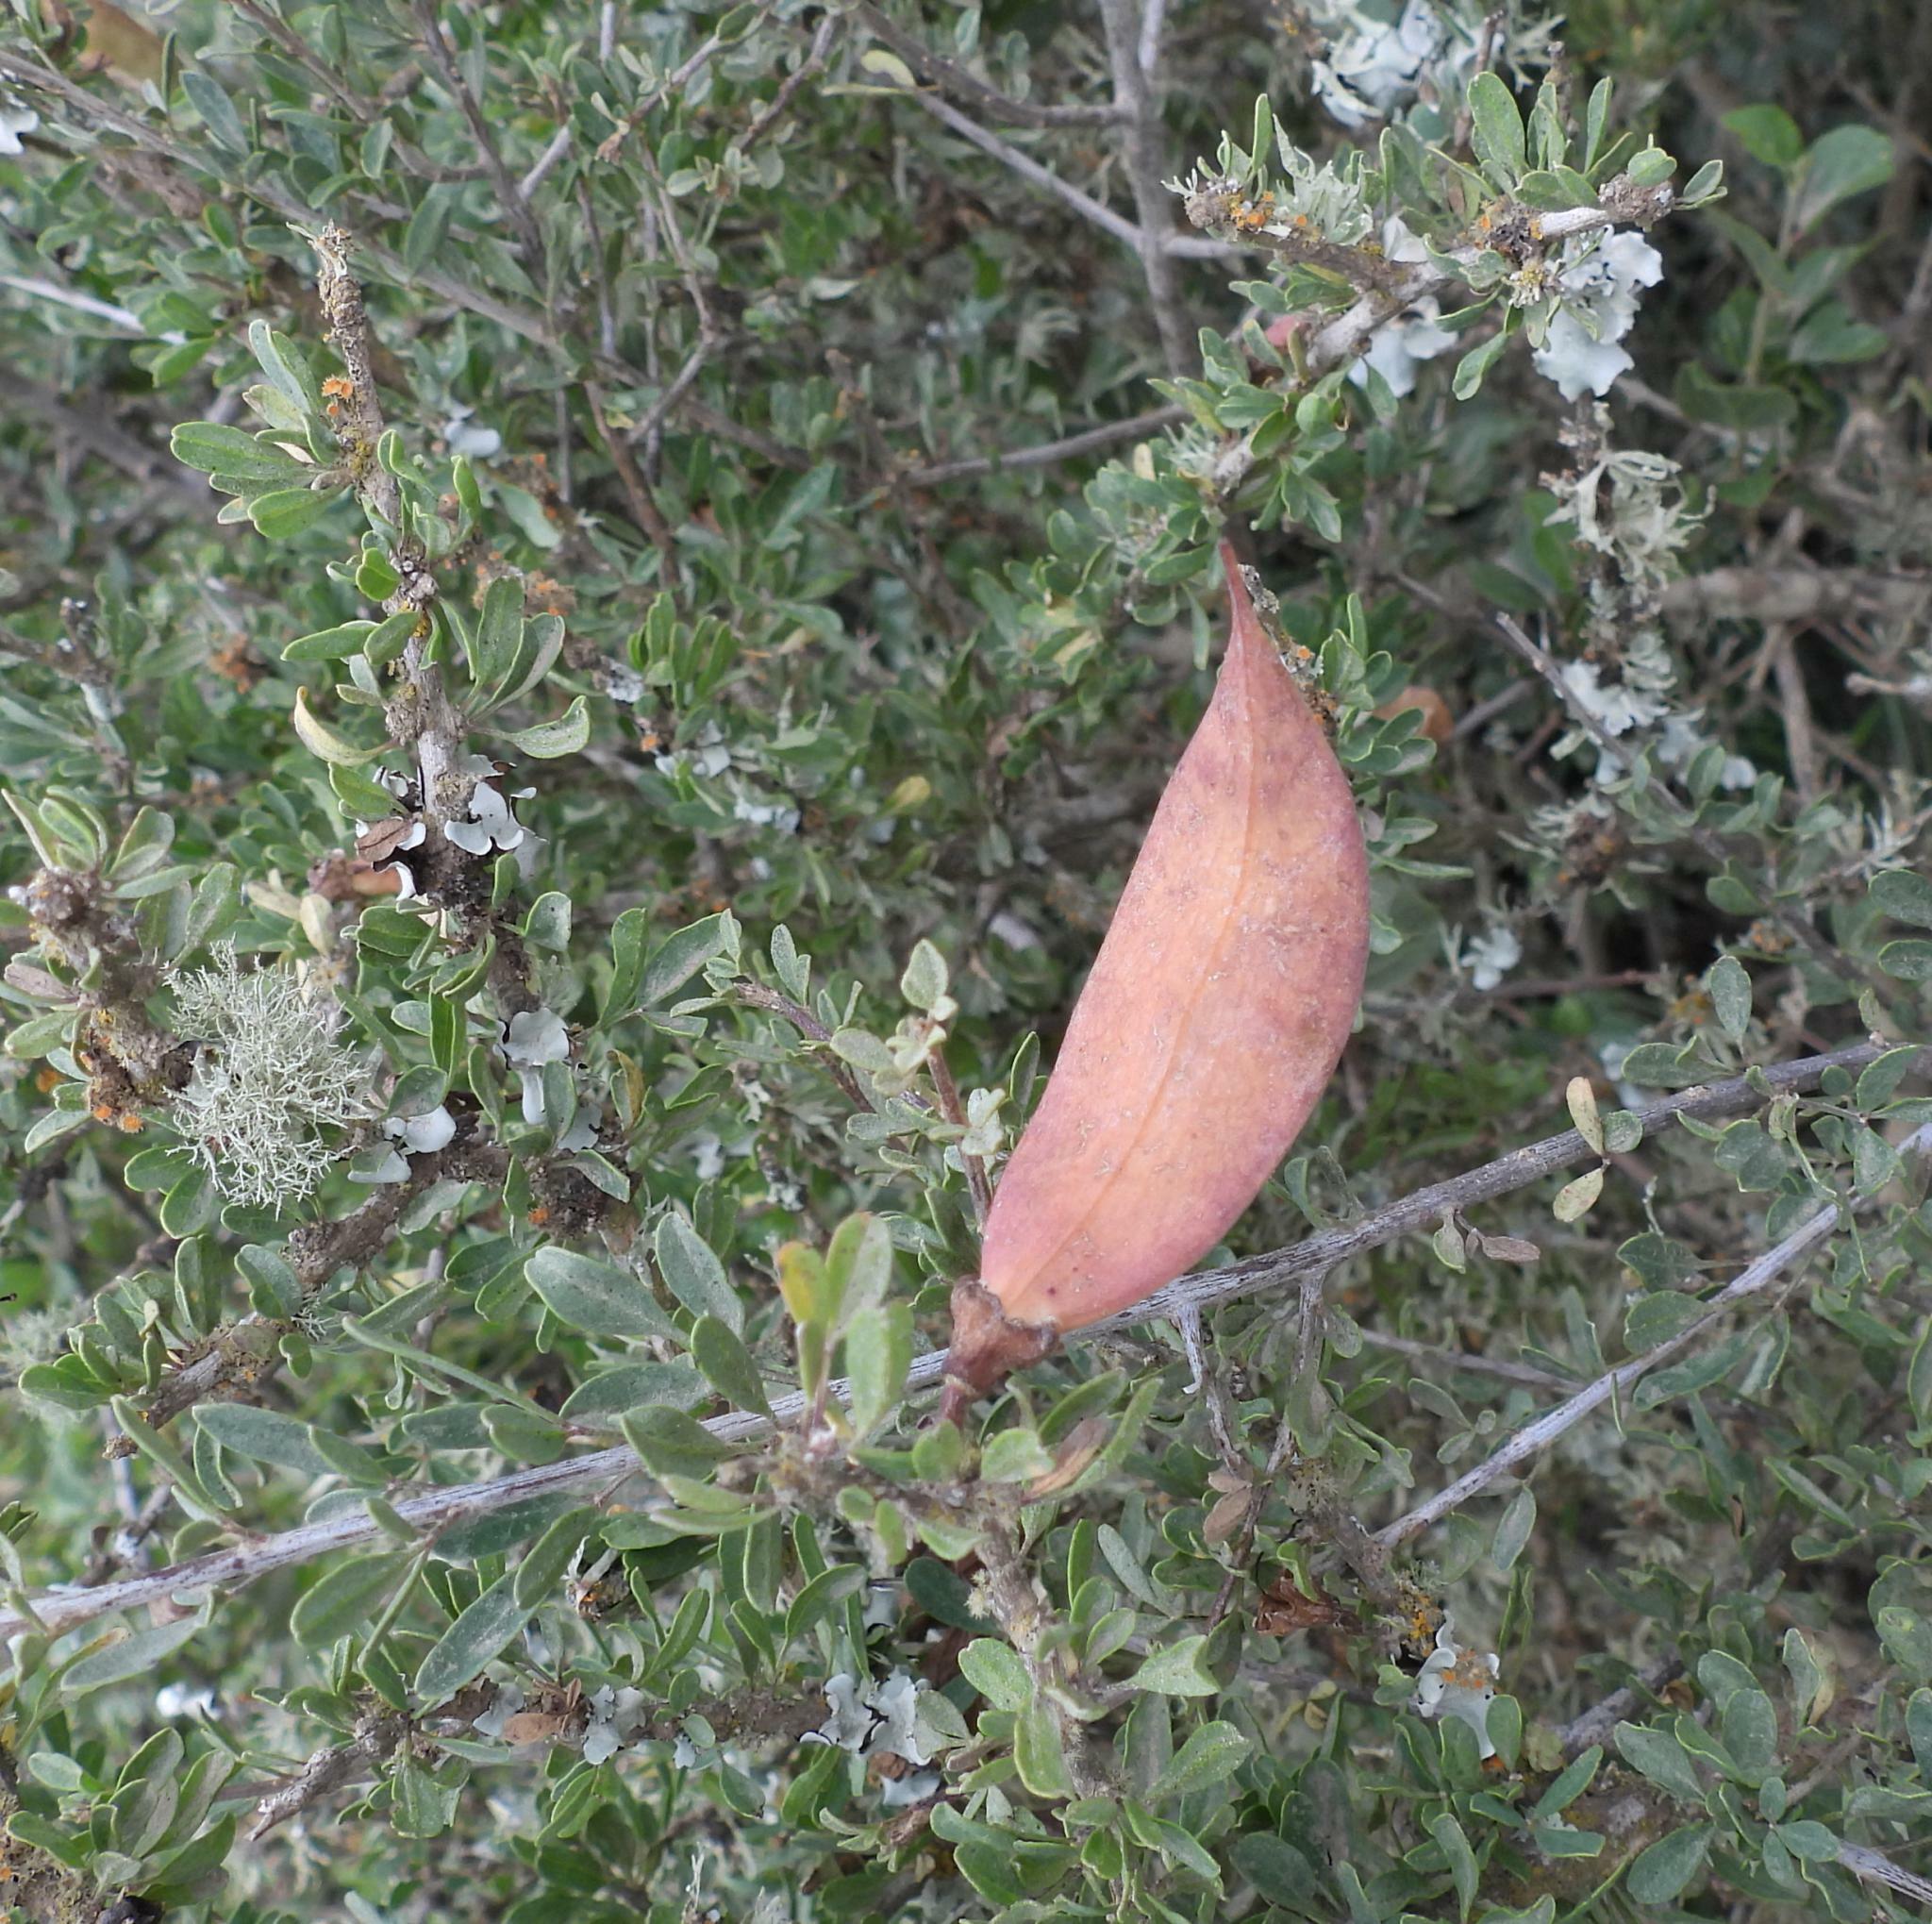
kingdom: Plantae
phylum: Tracheophyta
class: Magnoliopsida
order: Lamiales
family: Bignoniaceae
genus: Rhigozum
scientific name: Rhigozum obovatum
